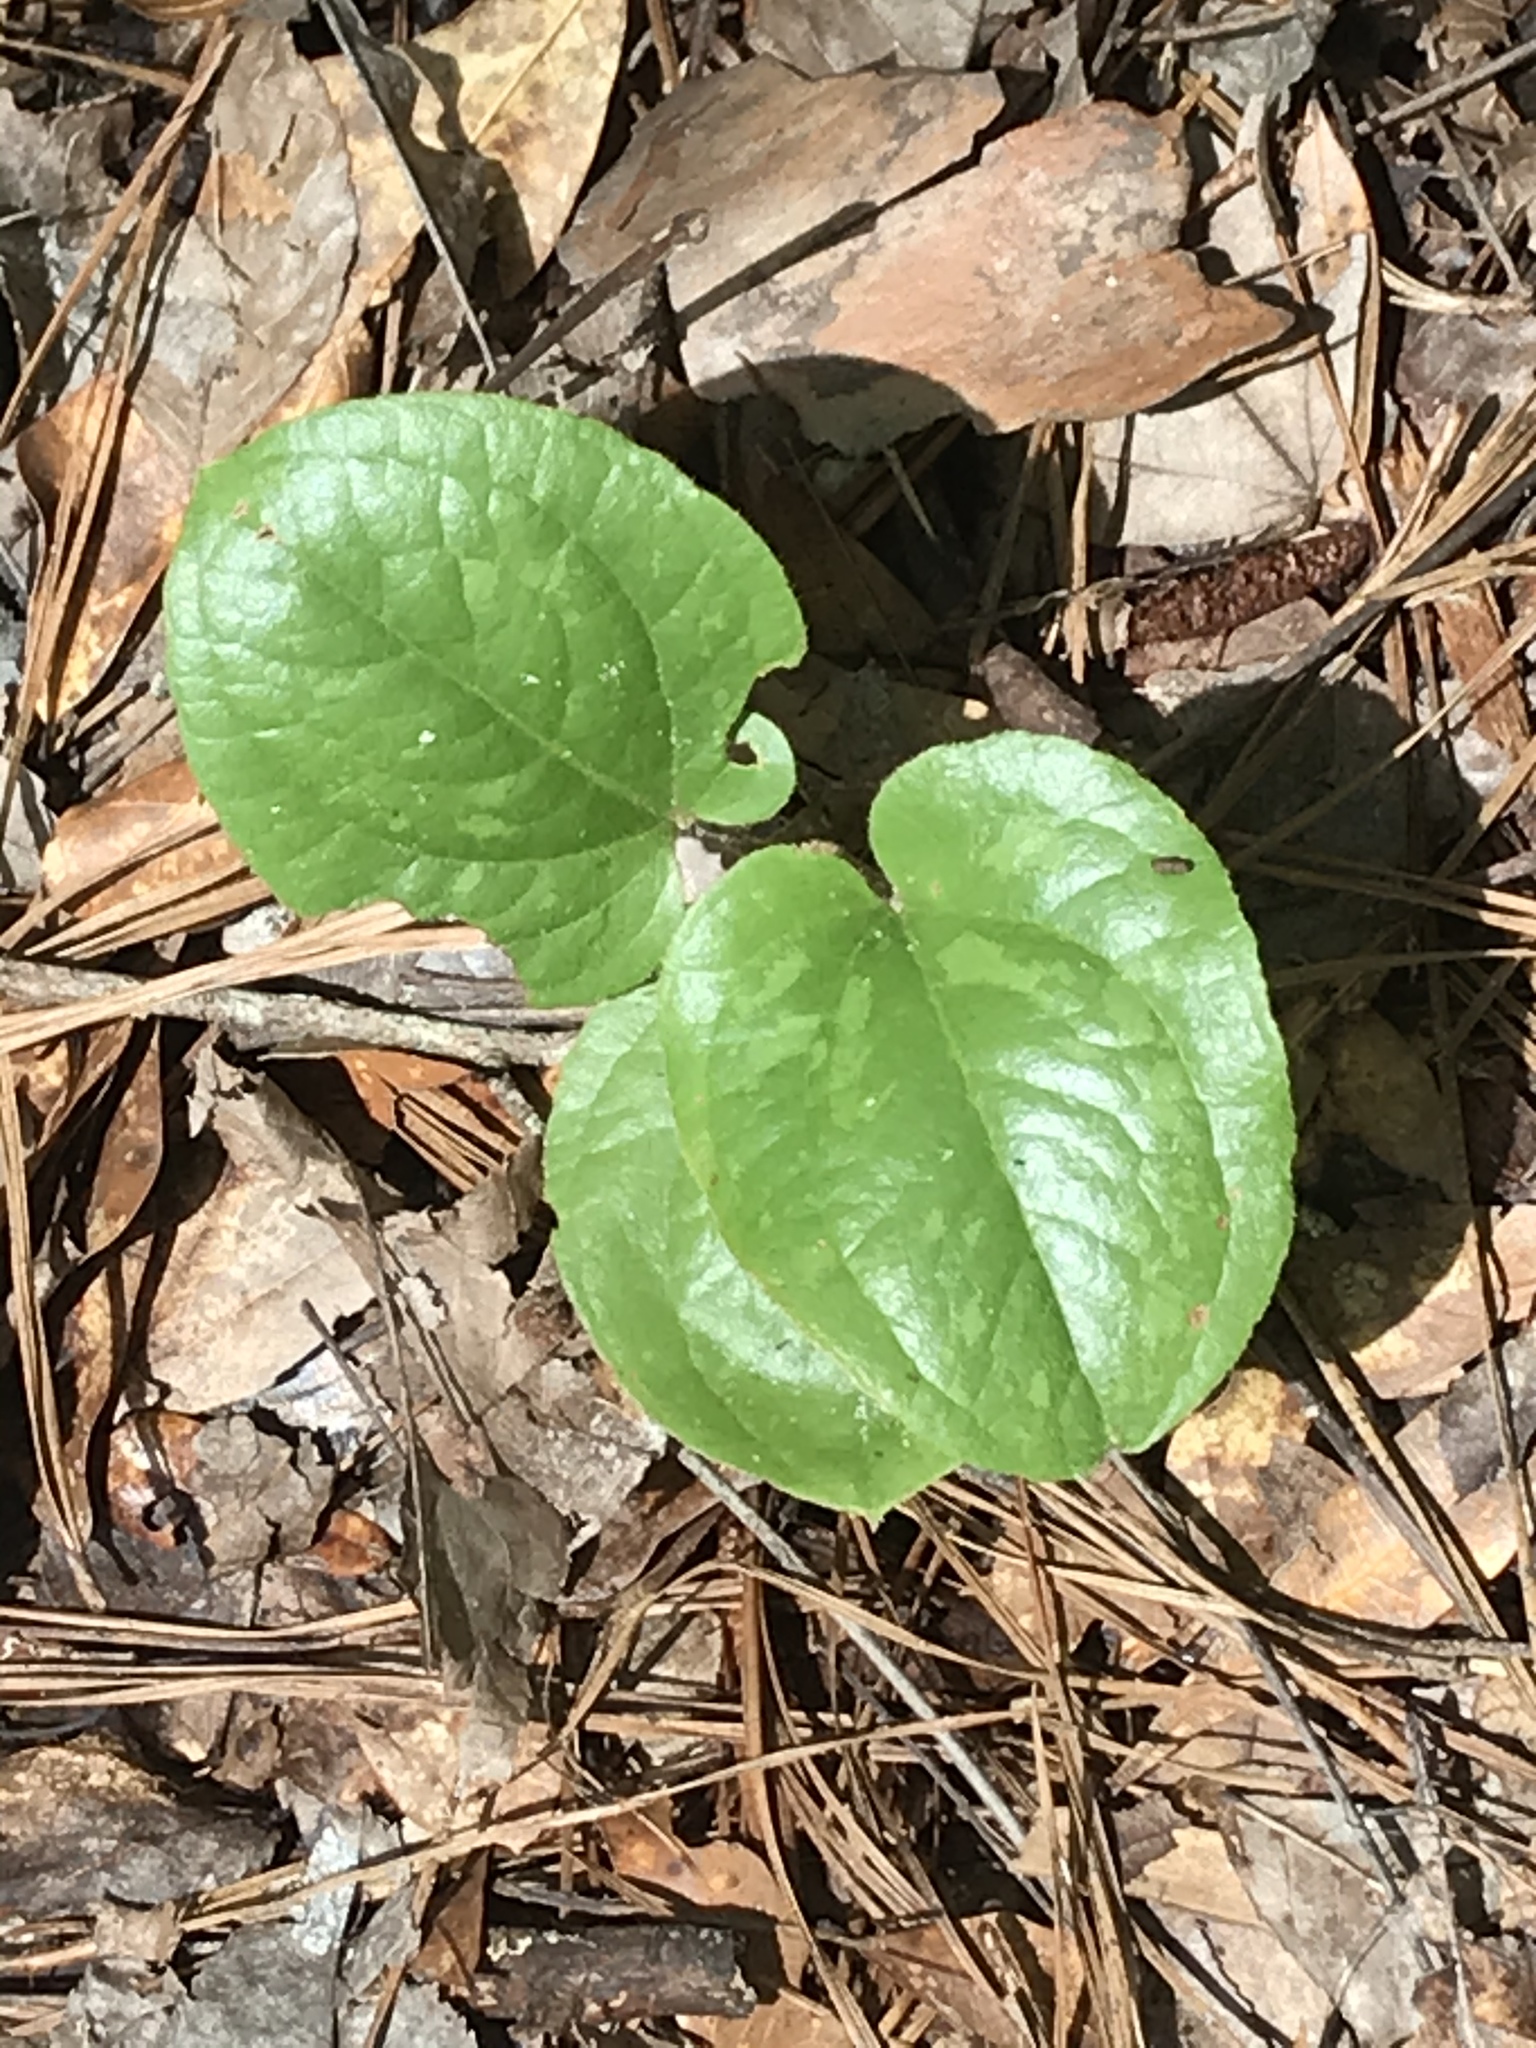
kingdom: Plantae
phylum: Tracheophyta
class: Liliopsida
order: Liliales
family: Smilacaceae
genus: Smilax
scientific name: Smilax pumila
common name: Sarsaparilla-vine
